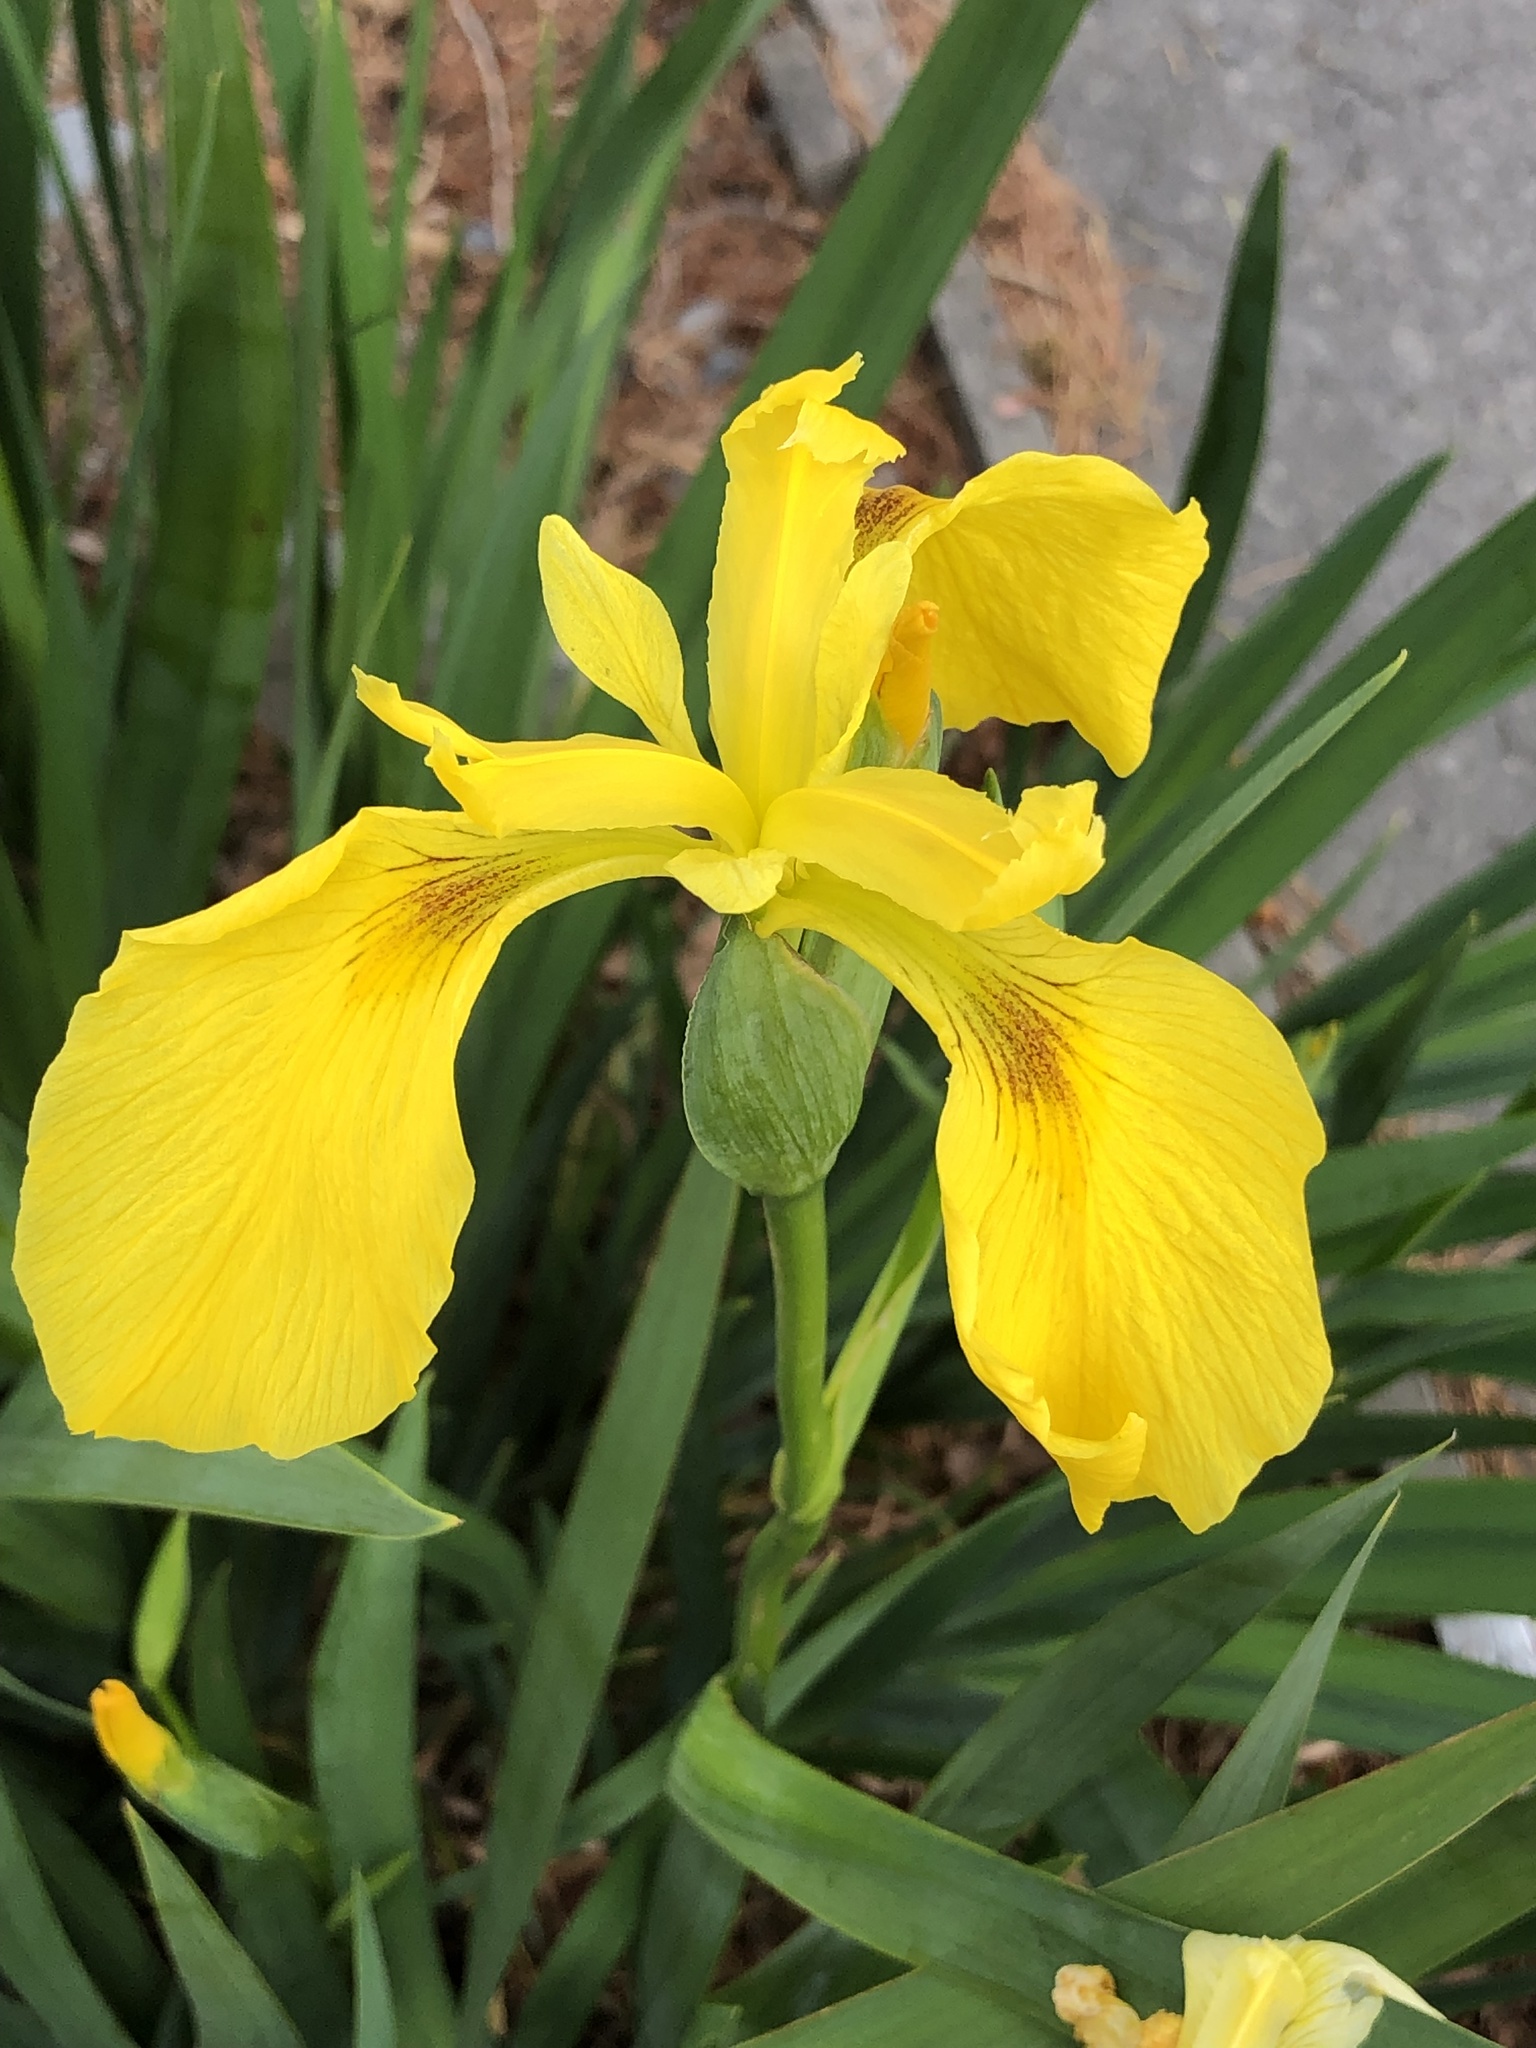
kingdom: Plantae
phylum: Tracheophyta
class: Liliopsida
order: Asparagales
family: Iridaceae
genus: Iris
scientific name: Iris pseudacorus
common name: Yellow flag
